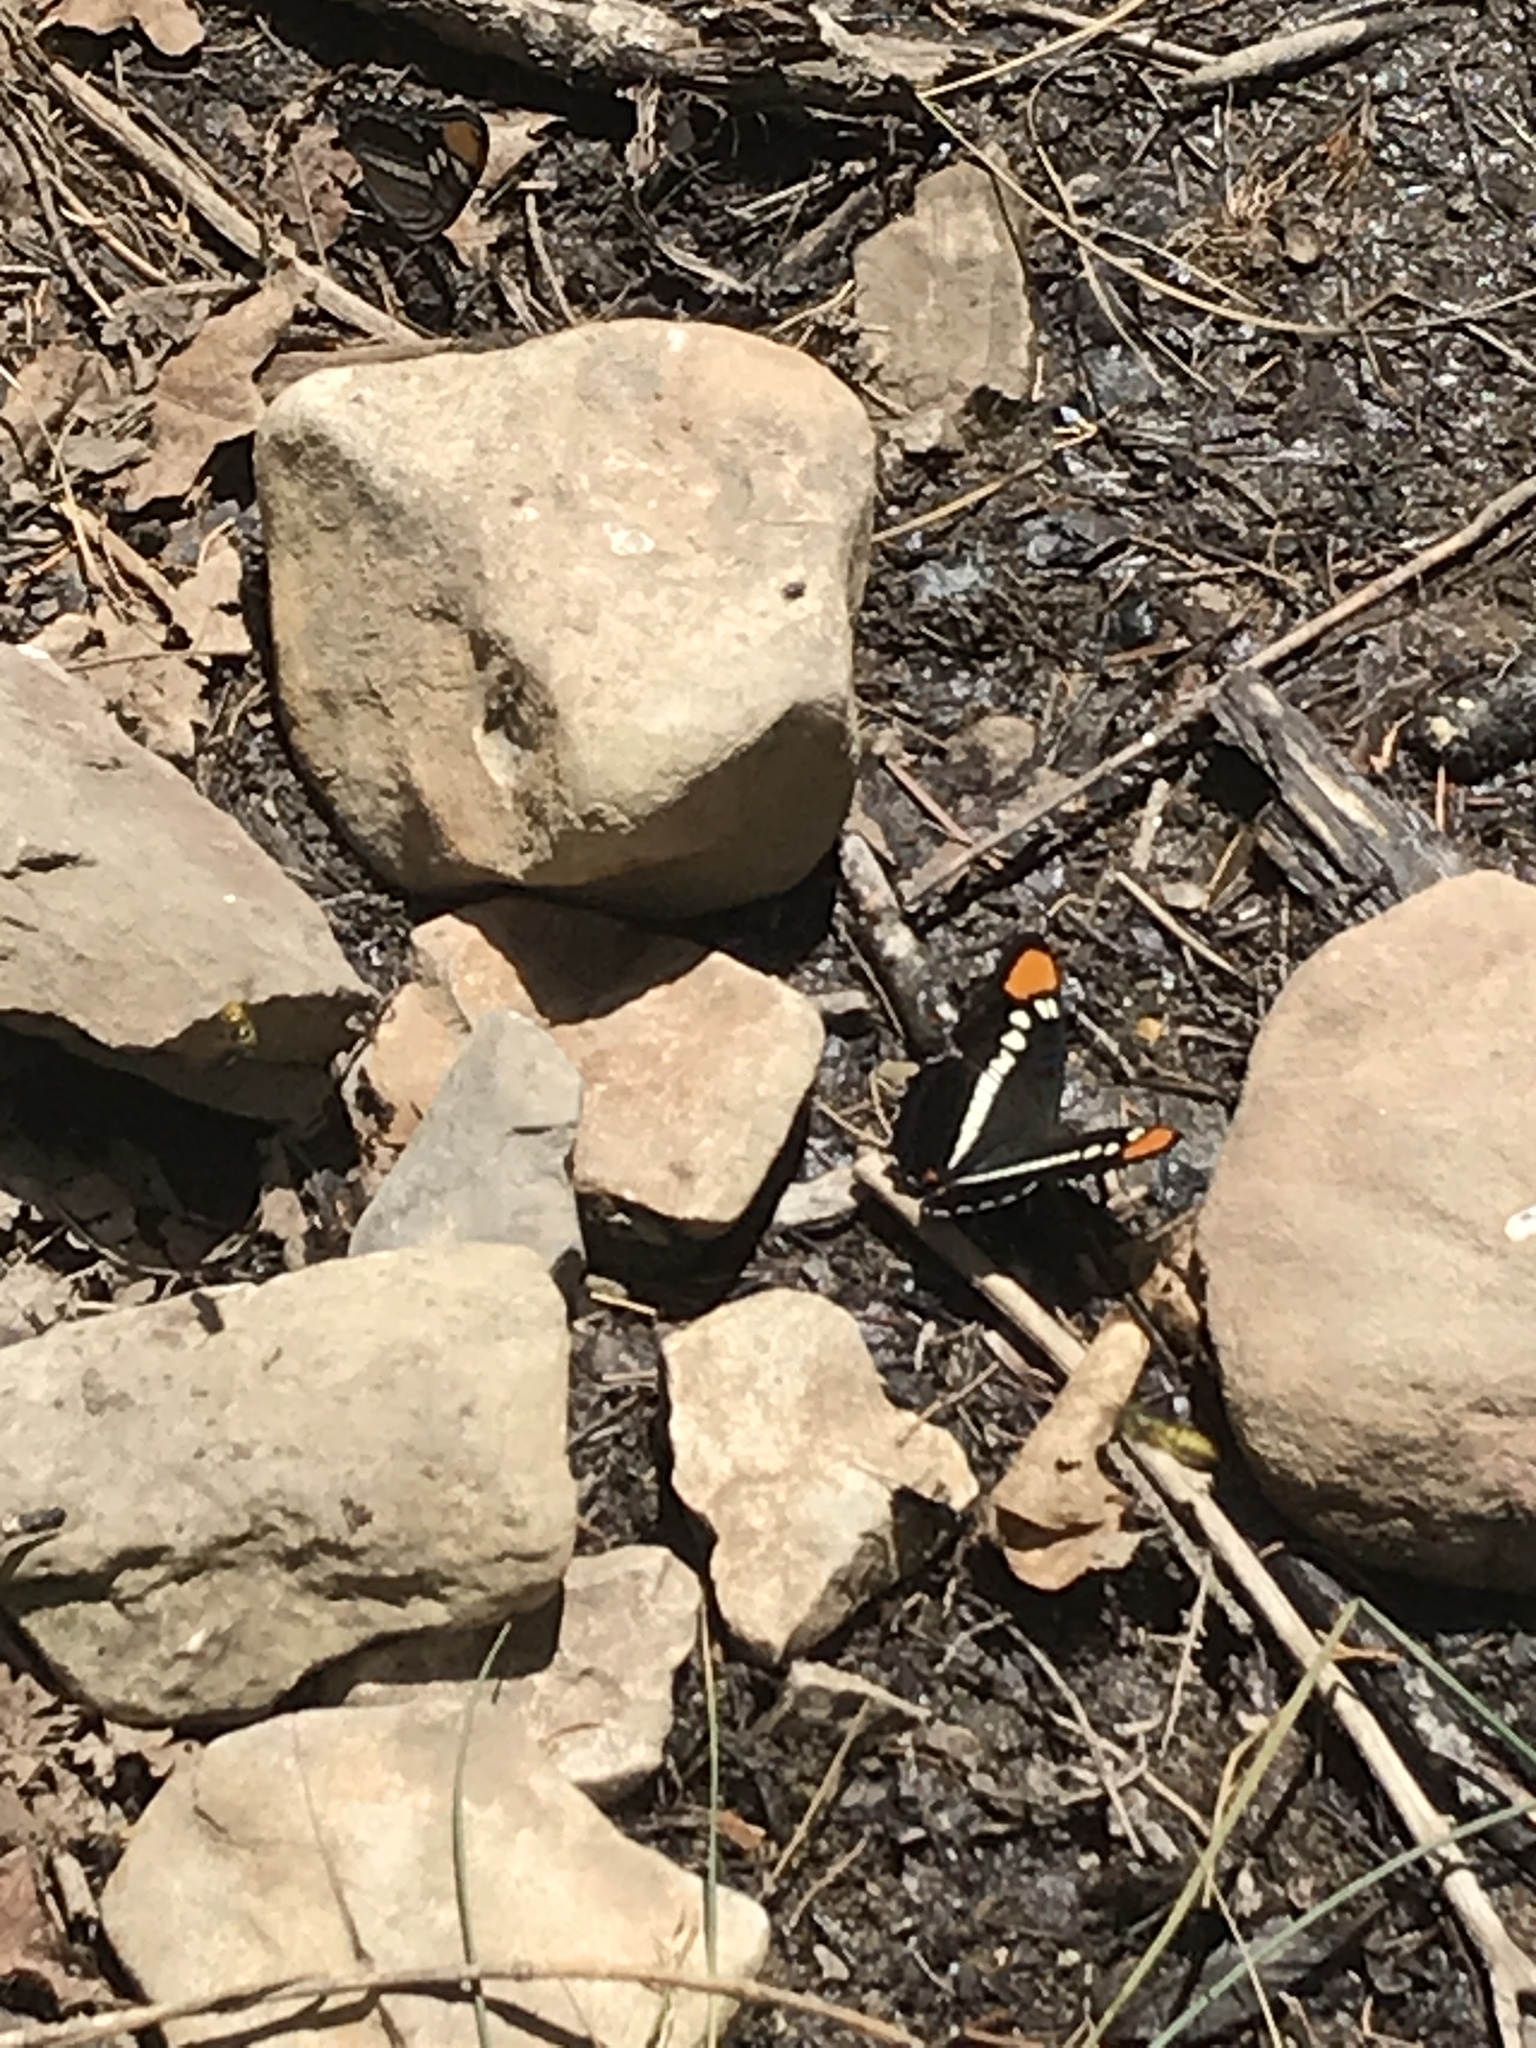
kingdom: Animalia
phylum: Arthropoda
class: Insecta
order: Lepidoptera
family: Nymphalidae
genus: Limenitis
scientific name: Limenitis bredowii
